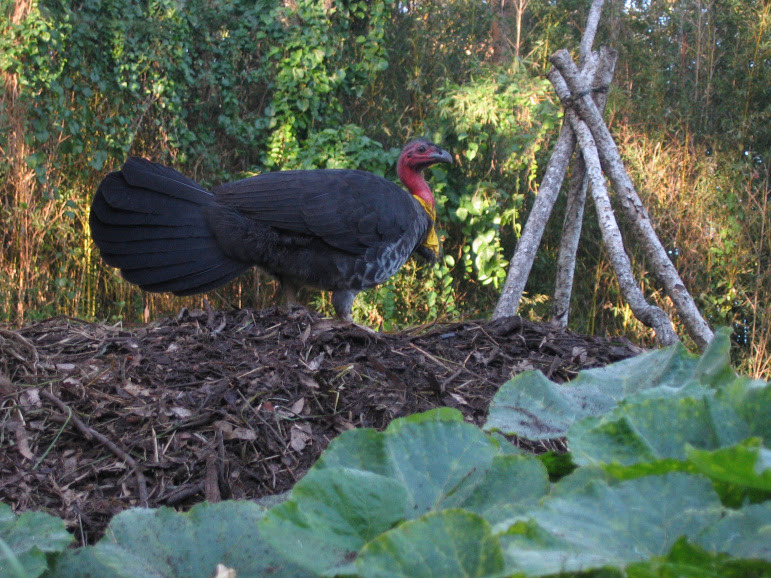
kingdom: Animalia
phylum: Chordata
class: Aves
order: Galliformes
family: Megapodiidae
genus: Alectura
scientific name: Alectura lathami
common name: Australian brushturkey
